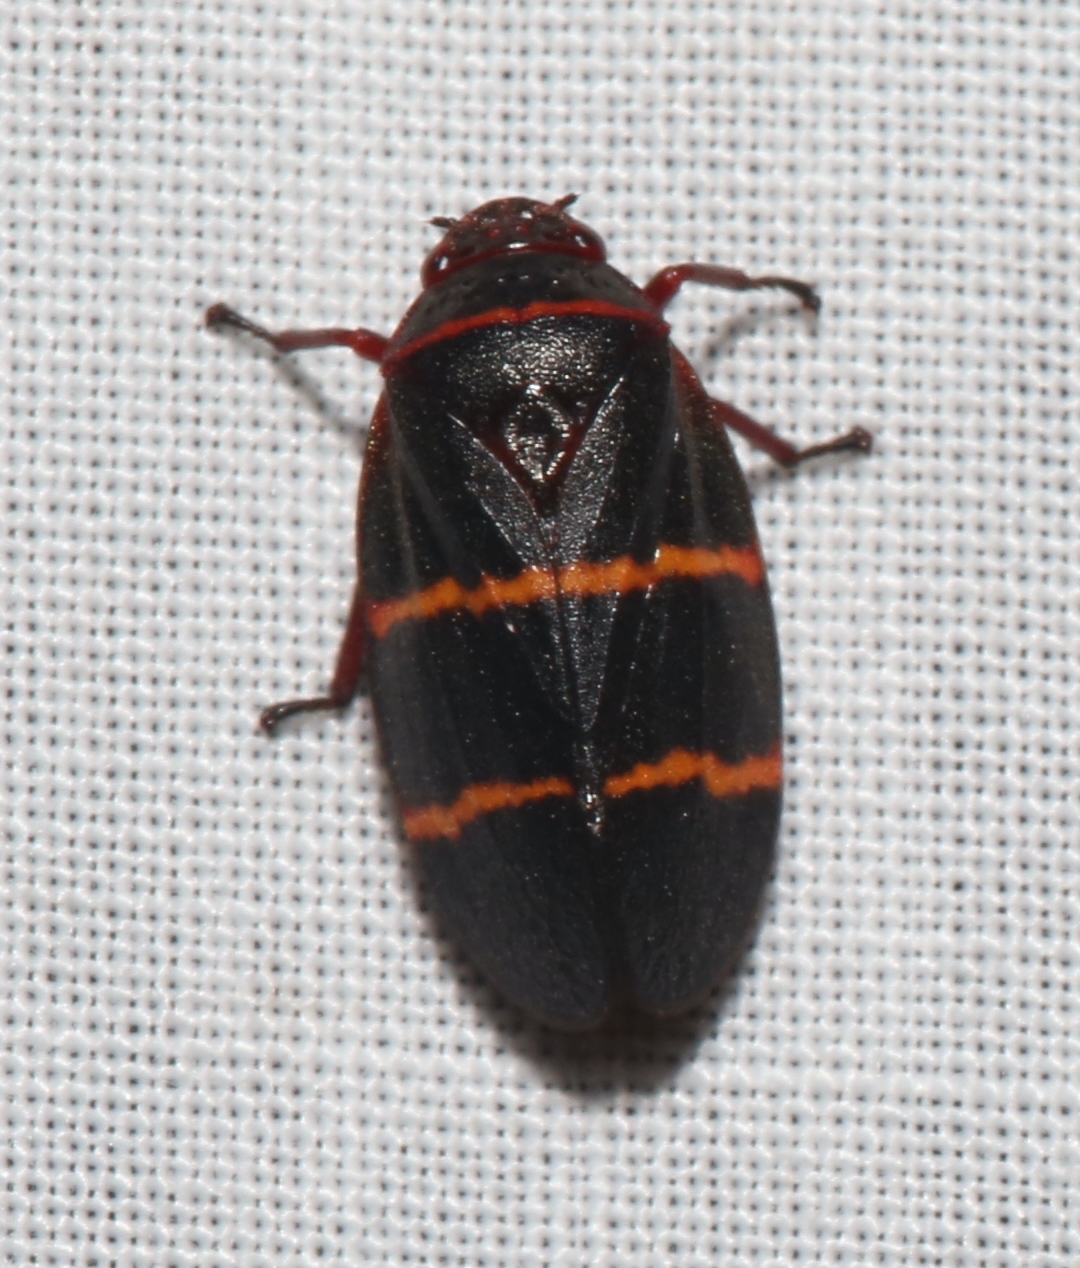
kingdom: Animalia
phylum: Arthropoda
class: Insecta
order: Hemiptera
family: Cercopidae
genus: Prosapia
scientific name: Prosapia bicincta
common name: Twolined spittlebug
